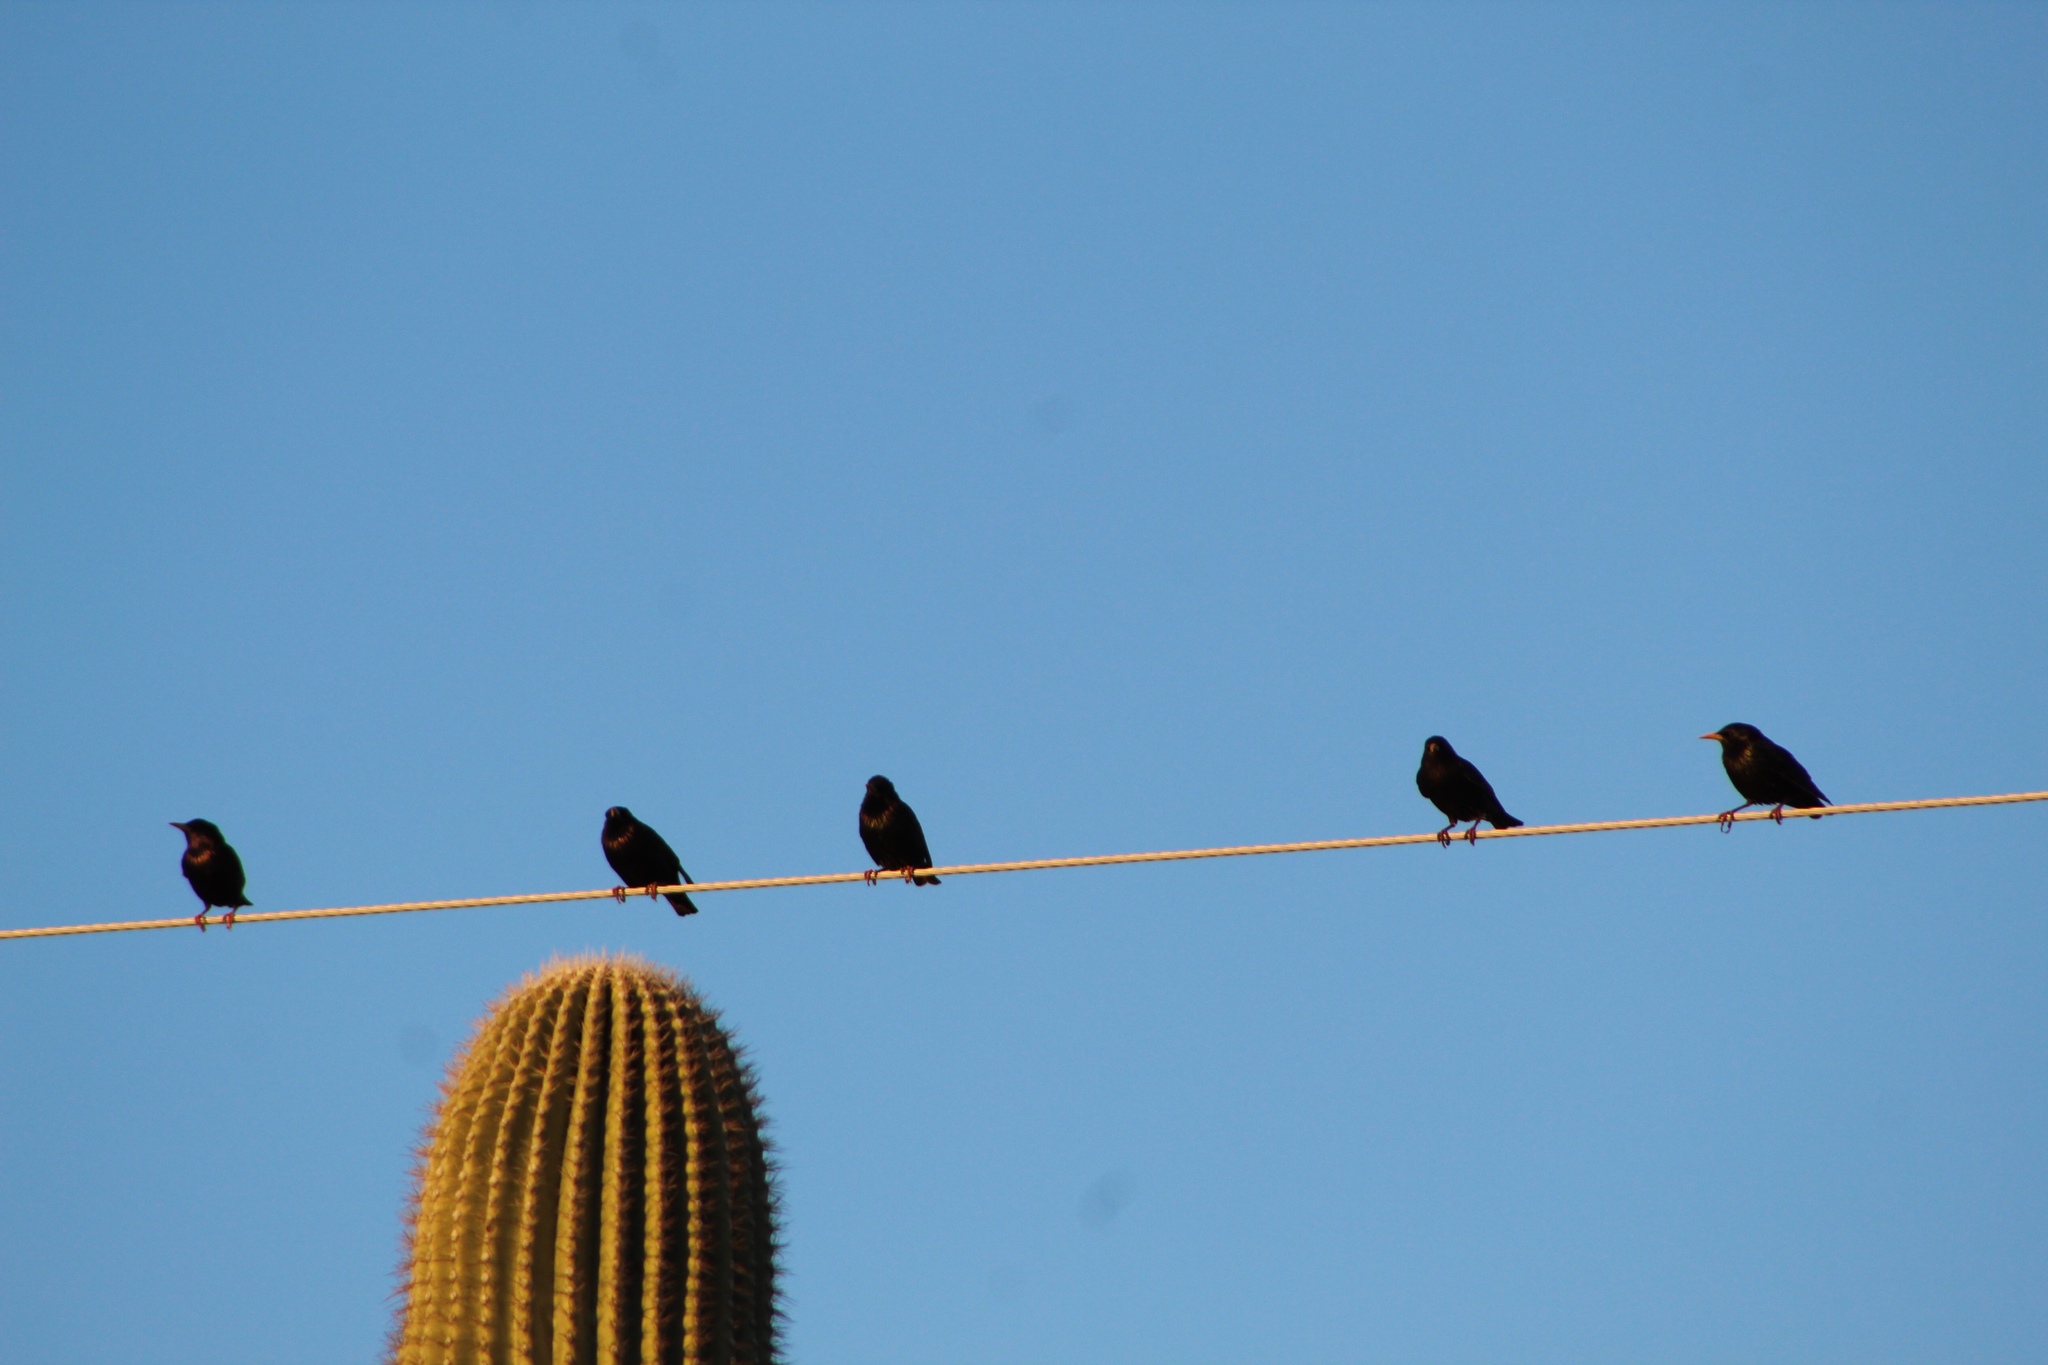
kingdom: Animalia
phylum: Chordata
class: Aves
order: Passeriformes
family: Sturnidae
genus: Sturnus
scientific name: Sturnus vulgaris
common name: Common starling
